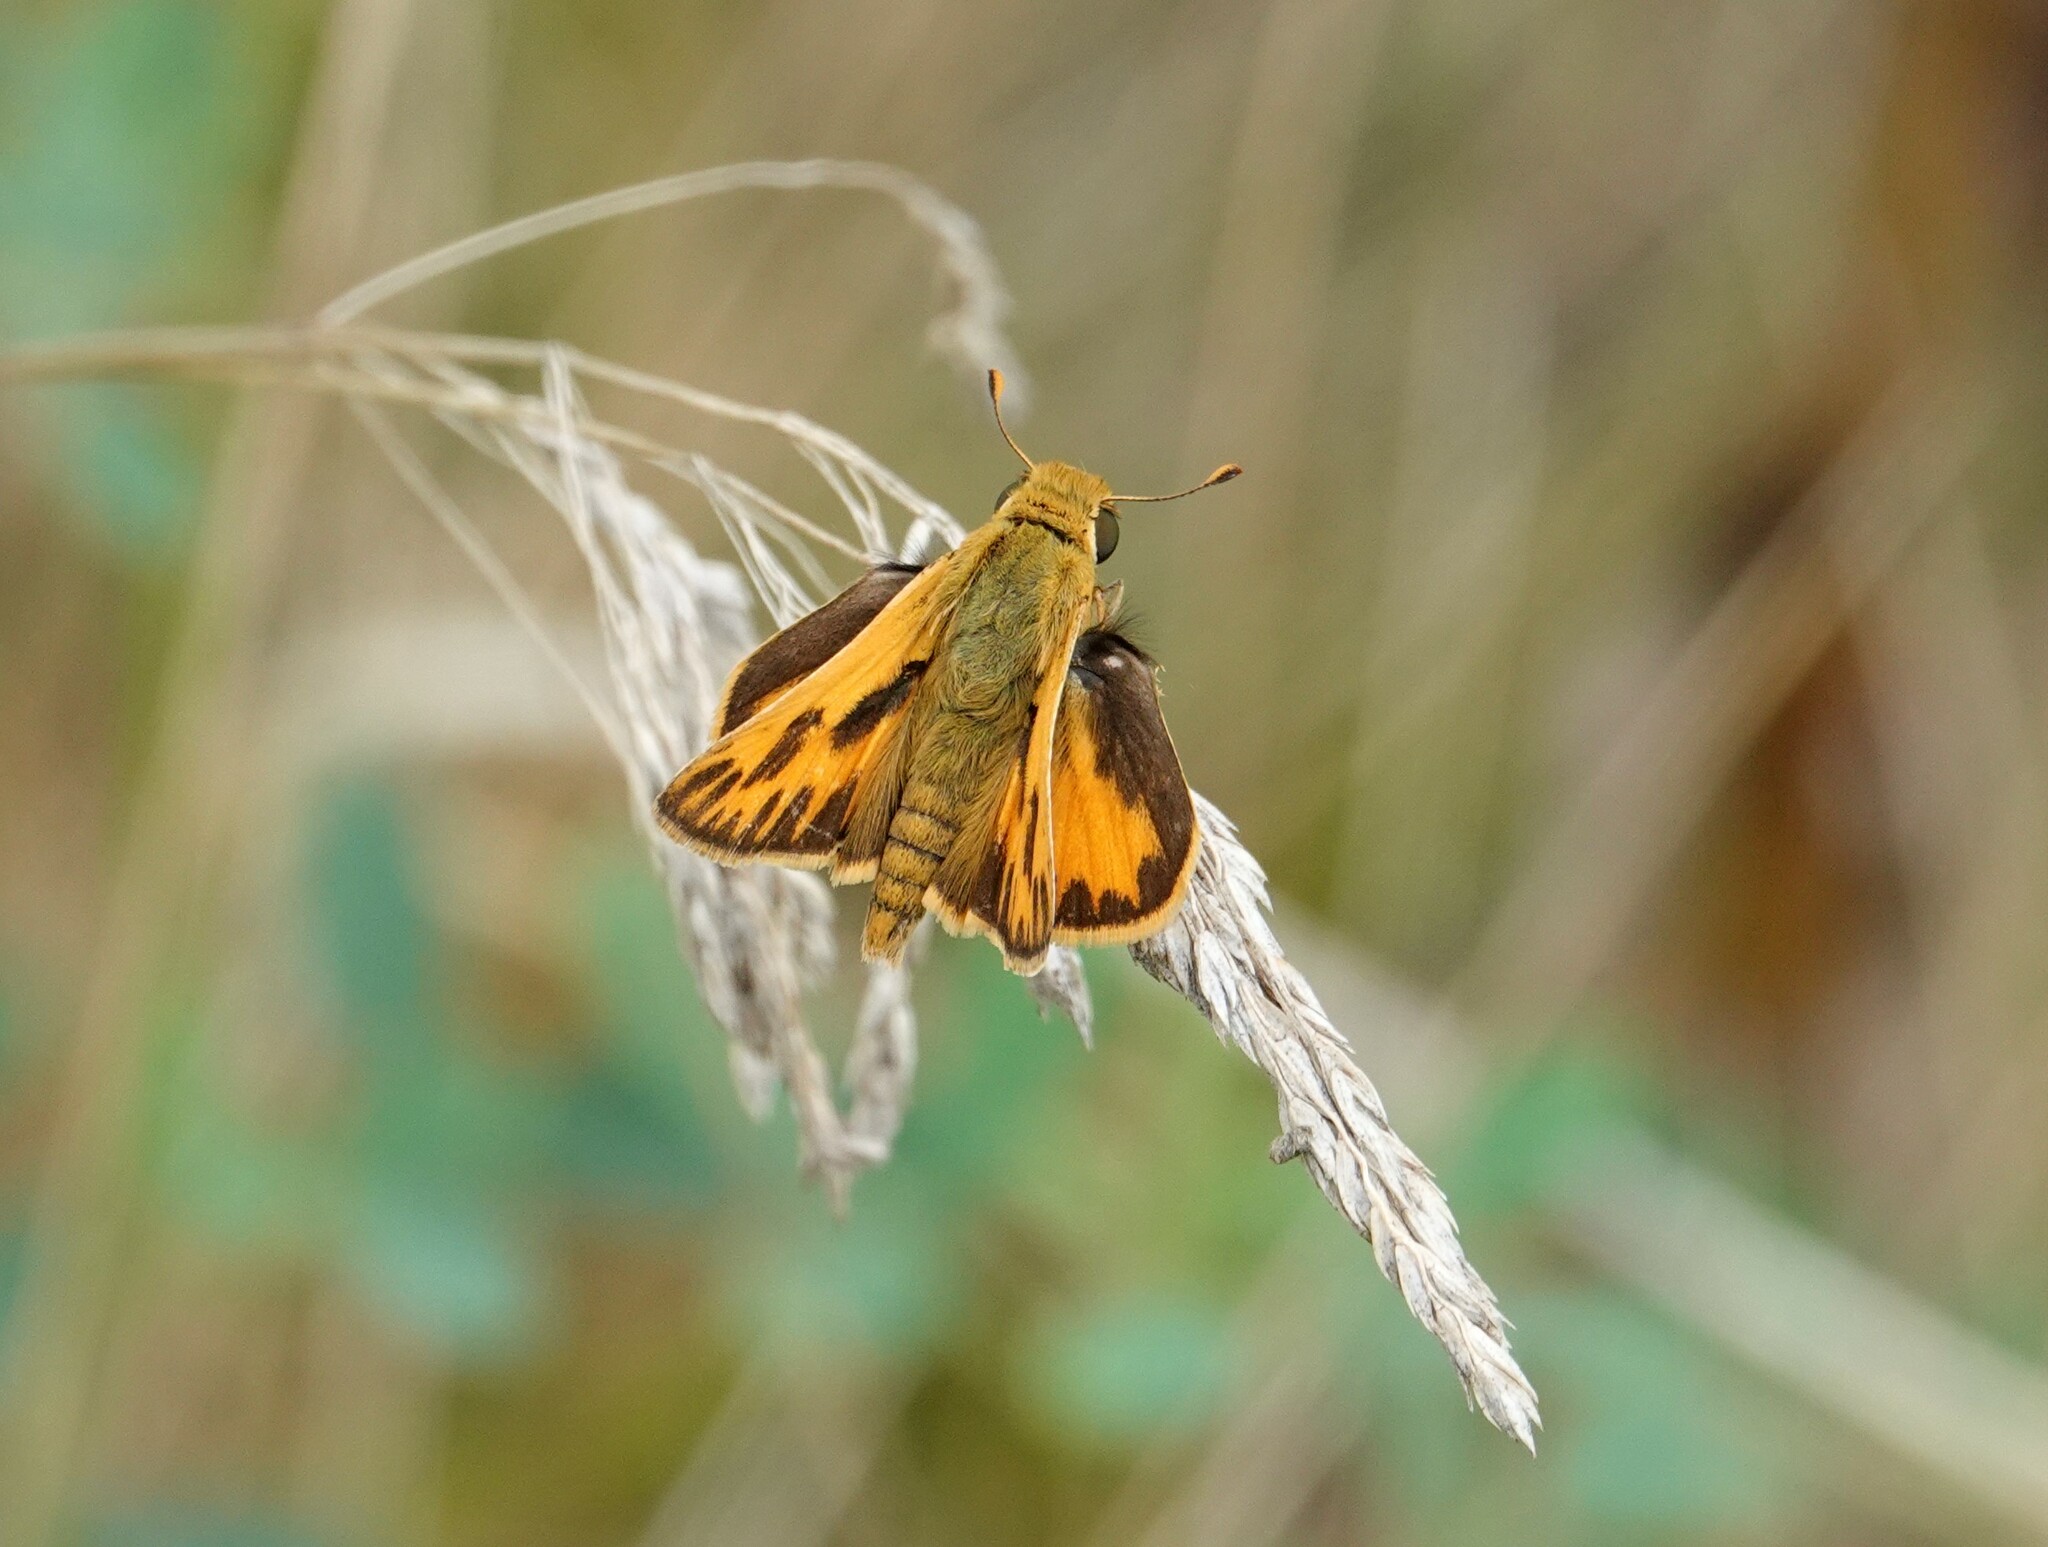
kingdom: Animalia
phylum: Arthropoda
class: Insecta
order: Lepidoptera
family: Hesperiidae
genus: Hylephila
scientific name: Hylephila phyleus
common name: Fiery skipper
